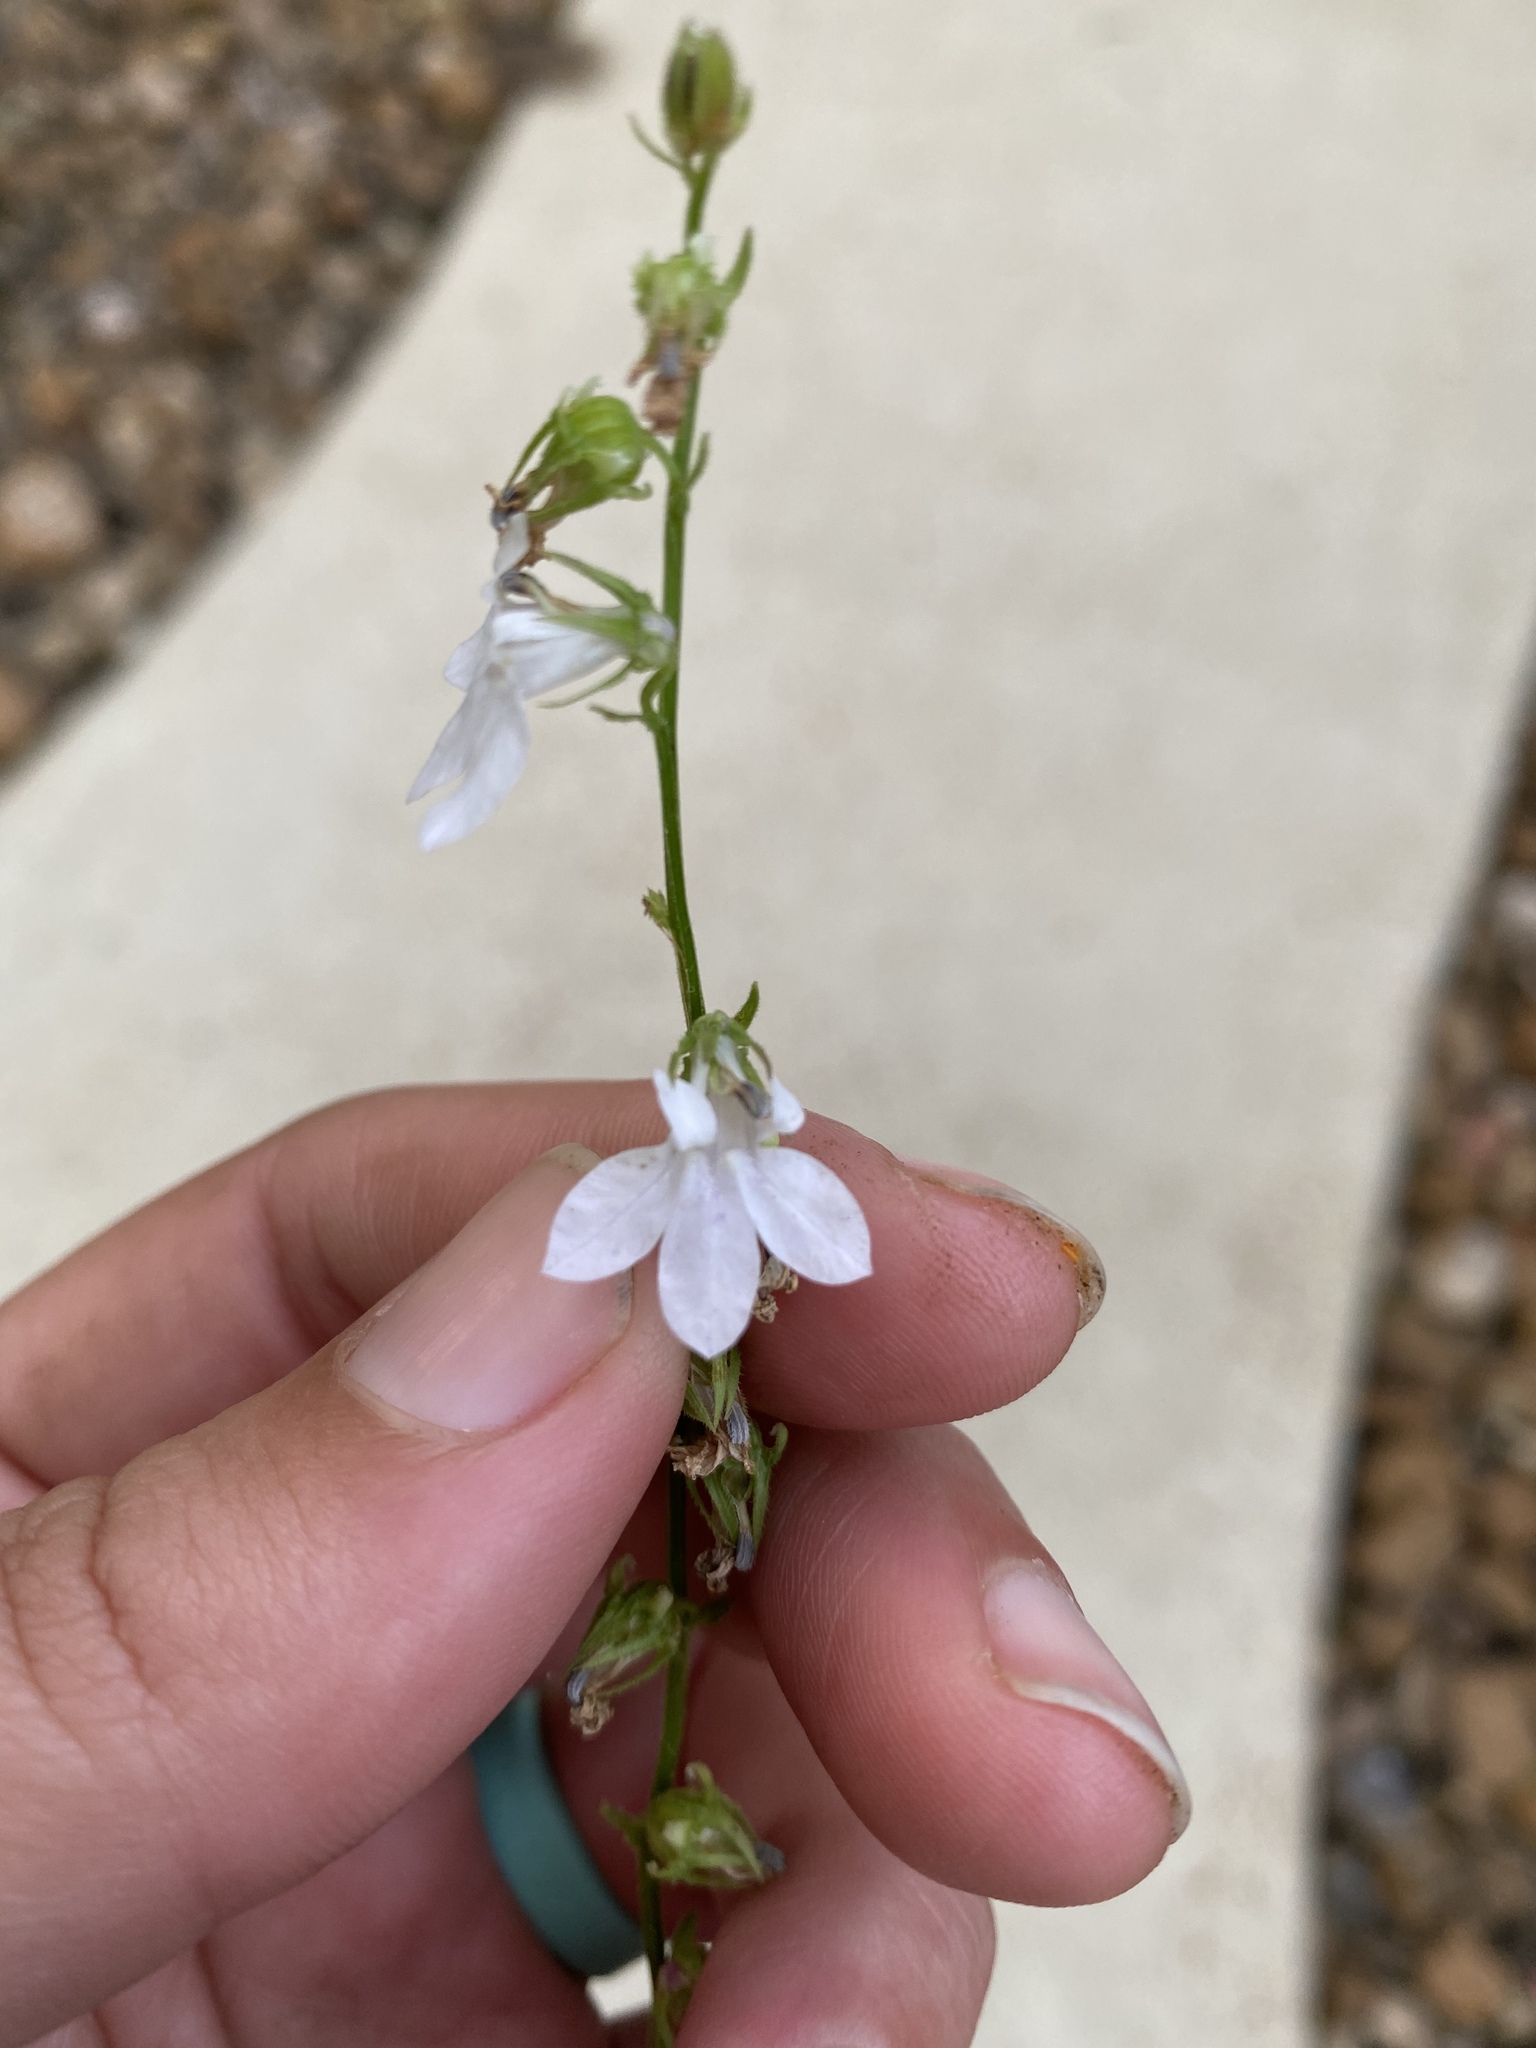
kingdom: Plantae
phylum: Tracheophyta
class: Magnoliopsida
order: Asterales
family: Campanulaceae
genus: Lobelia
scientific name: Lobelia spicata
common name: Pale-spike lobelia
